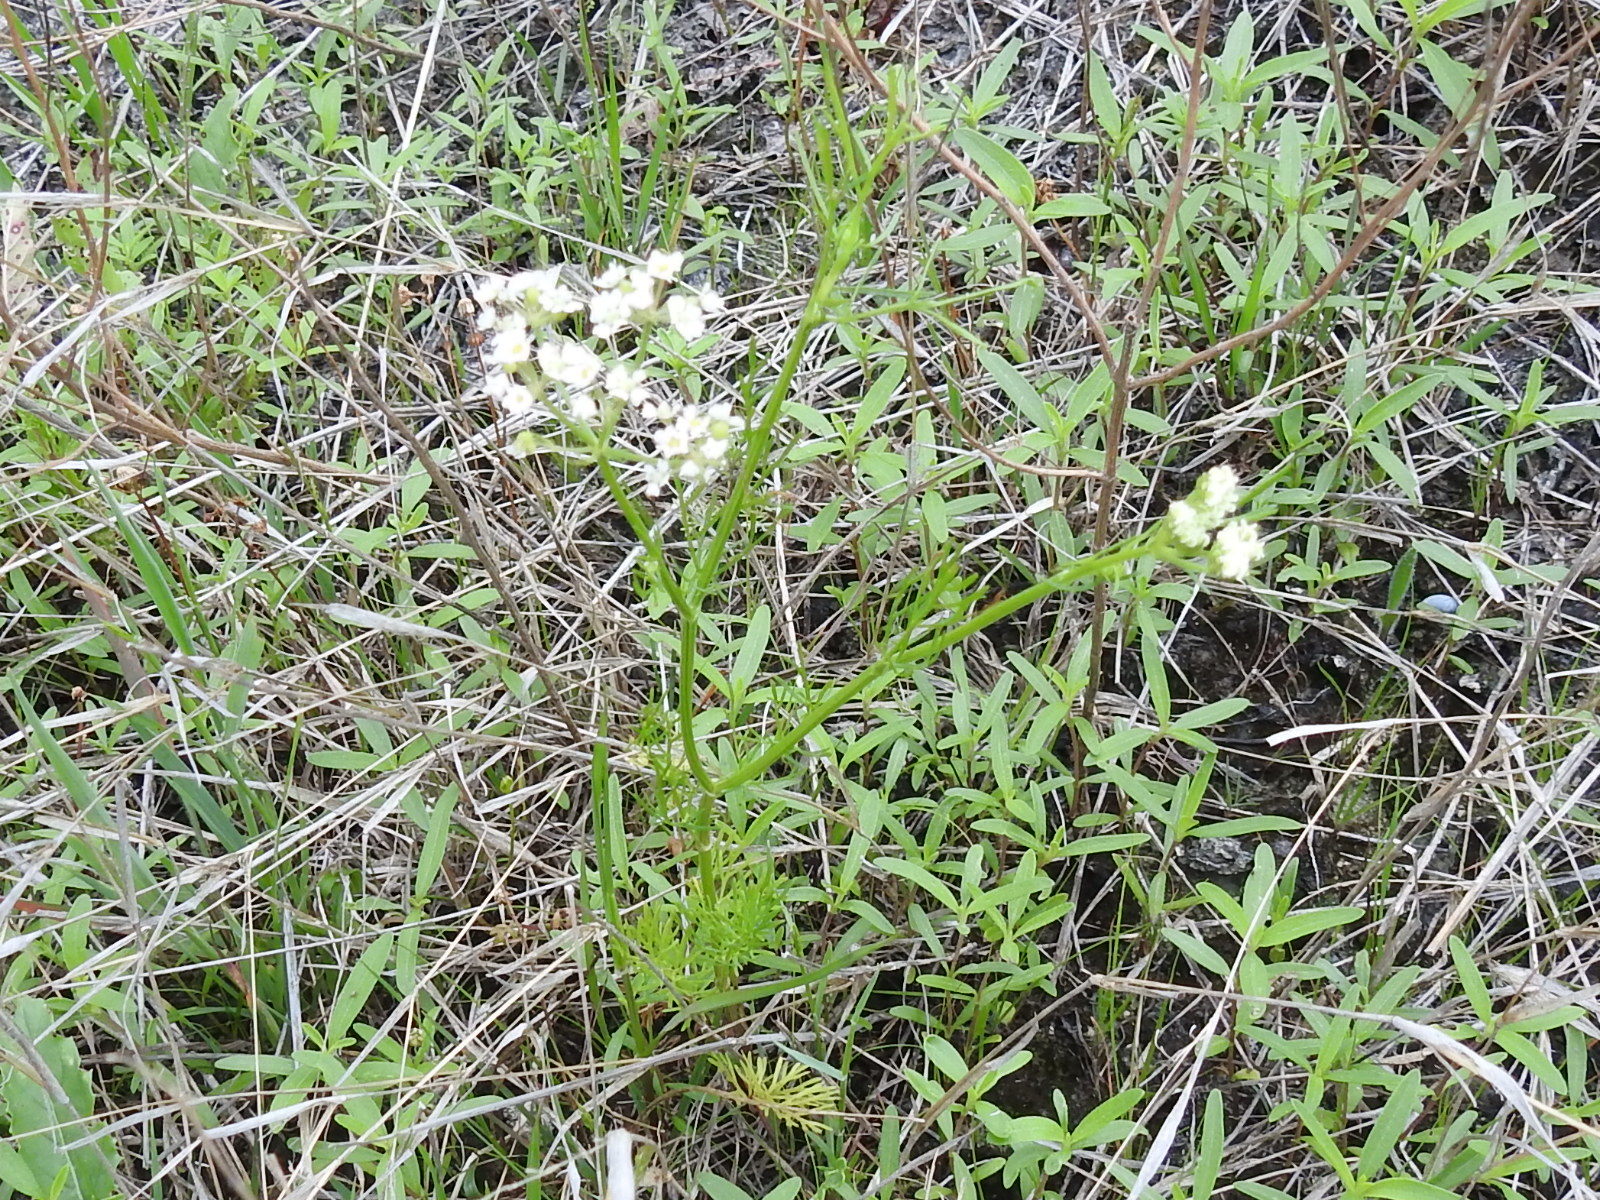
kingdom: Plantae
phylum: Tracheophyta
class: Magnoliopsida
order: Apiales
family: Apiaceae
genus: Atrema
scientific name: Atrema americanum
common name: Prairie-bishop
